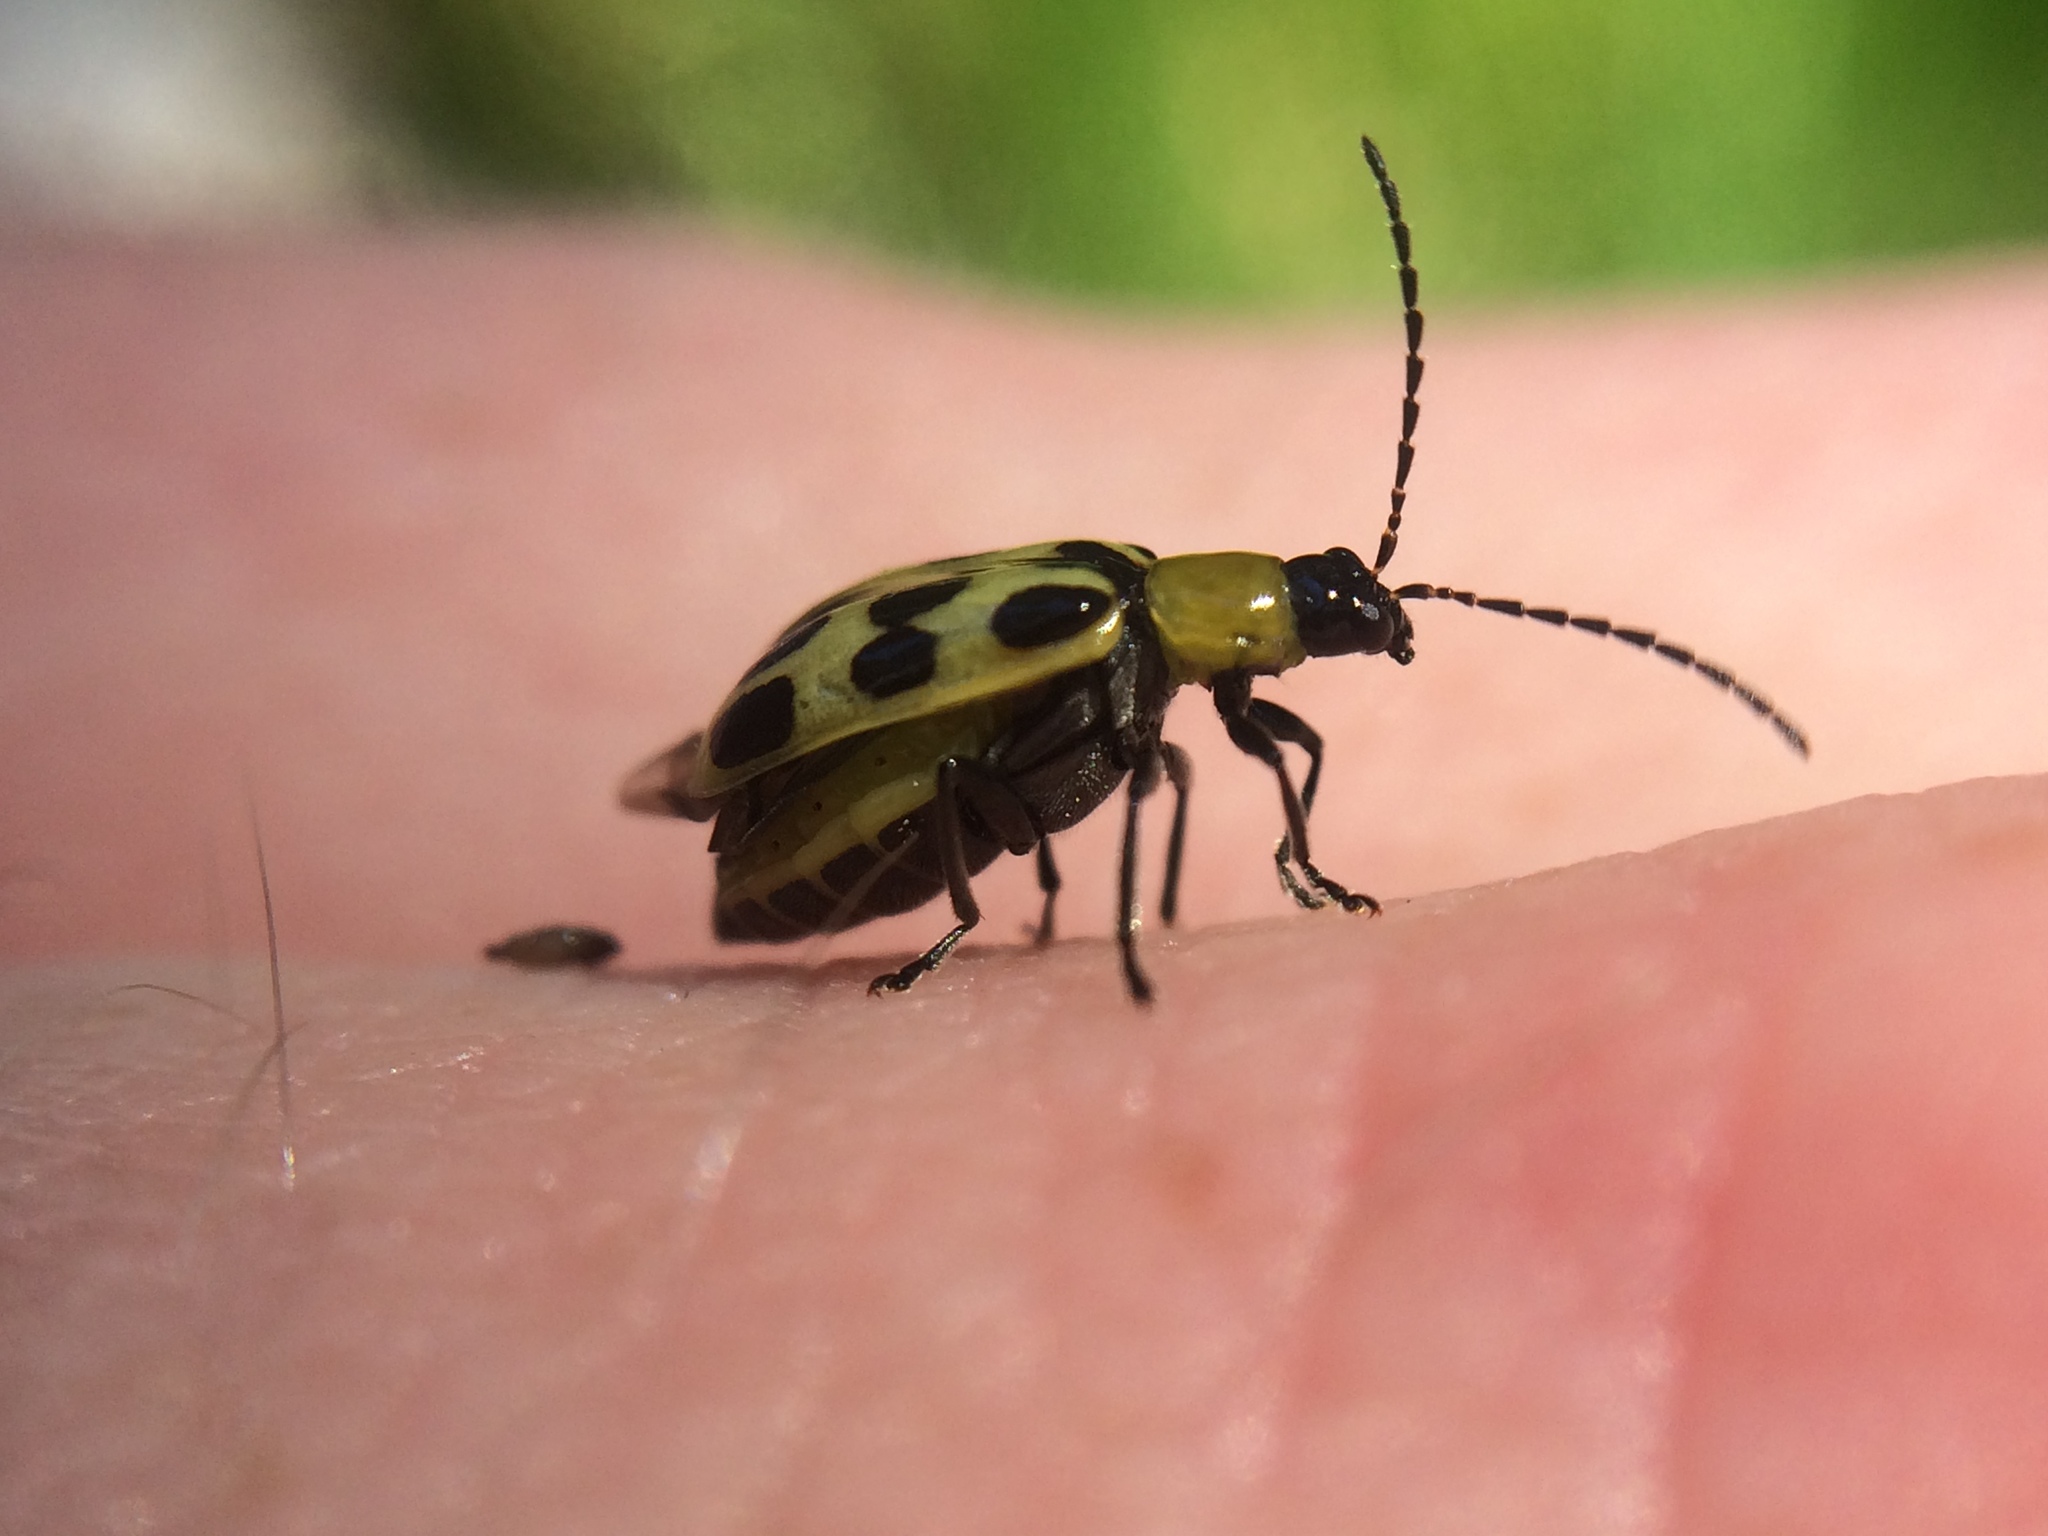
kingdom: Animalia
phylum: Arthropoda
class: Insecta
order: Coleoptera
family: Chrysomelidae
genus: Diabrotica
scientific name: Diabrotica undecimpunctata
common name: Spotted cucumber beetle
